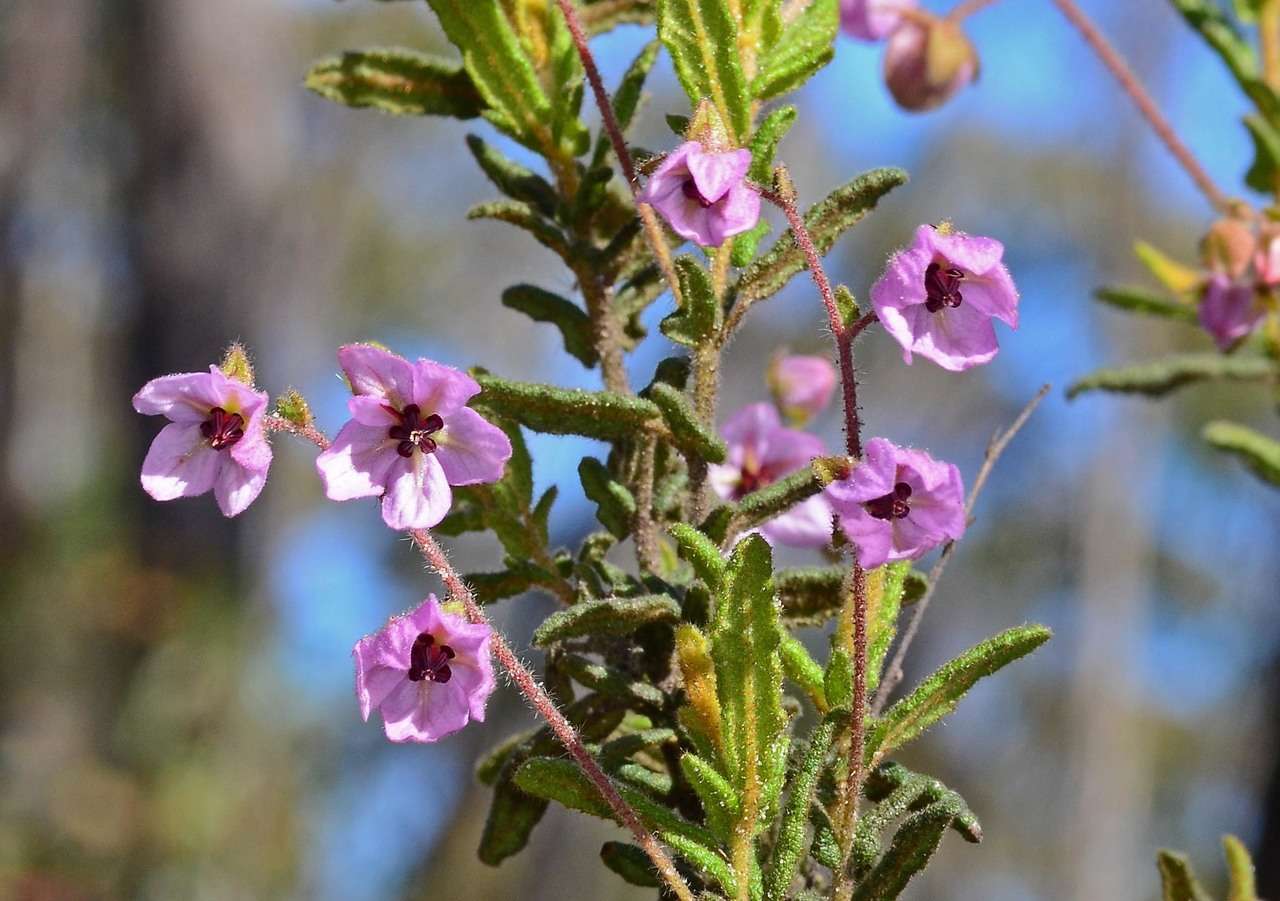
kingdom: Plantae
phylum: Tracheophyta
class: Magnoliopsida
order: Malvales
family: Malvaceae
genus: Thomasia
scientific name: Thomasia petalocalyx
